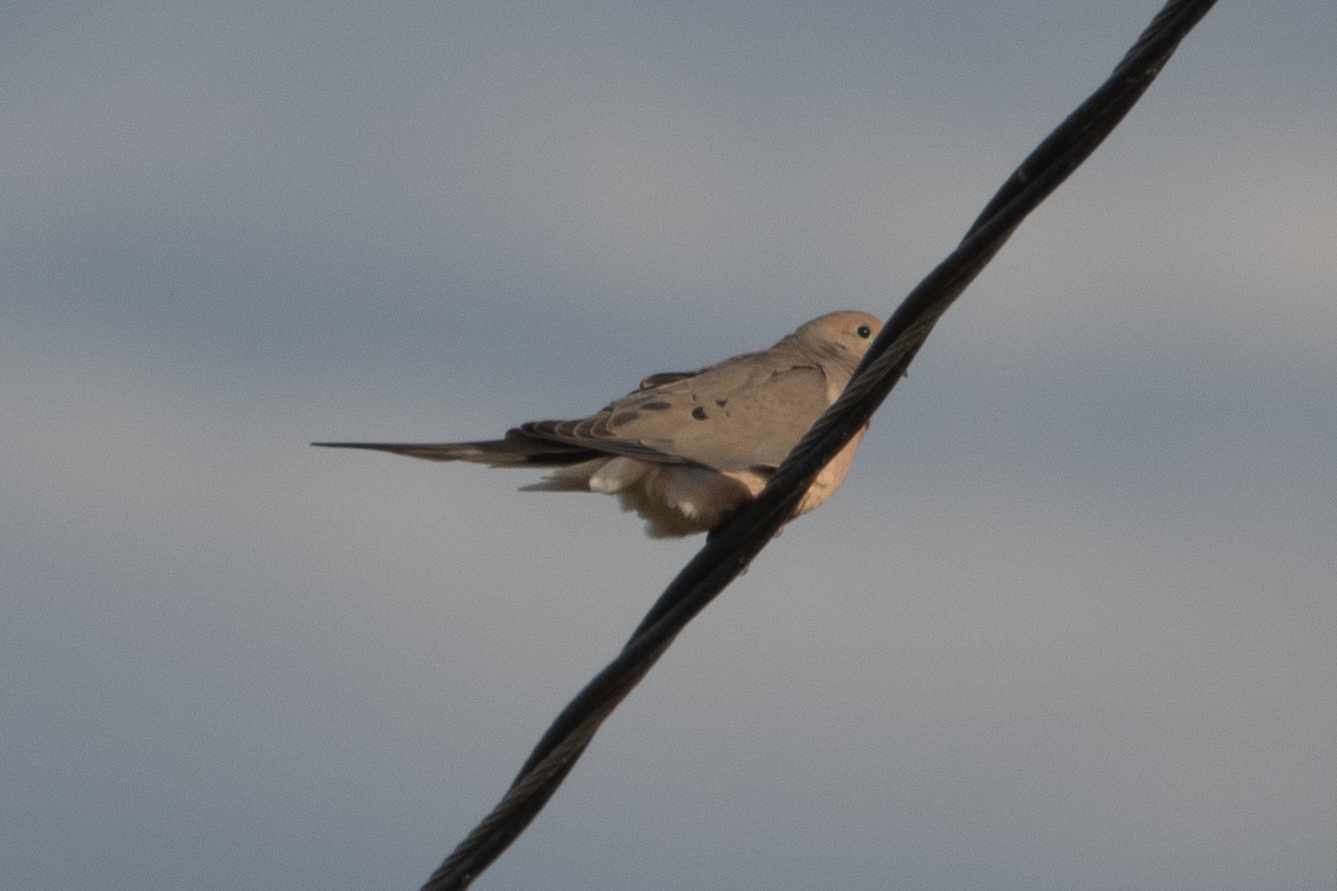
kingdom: Animalia
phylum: Chordata
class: Aves
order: Columbiformes
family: Columbidae
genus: Zenaida
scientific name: Zenaida macroura
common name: Mourning dove
